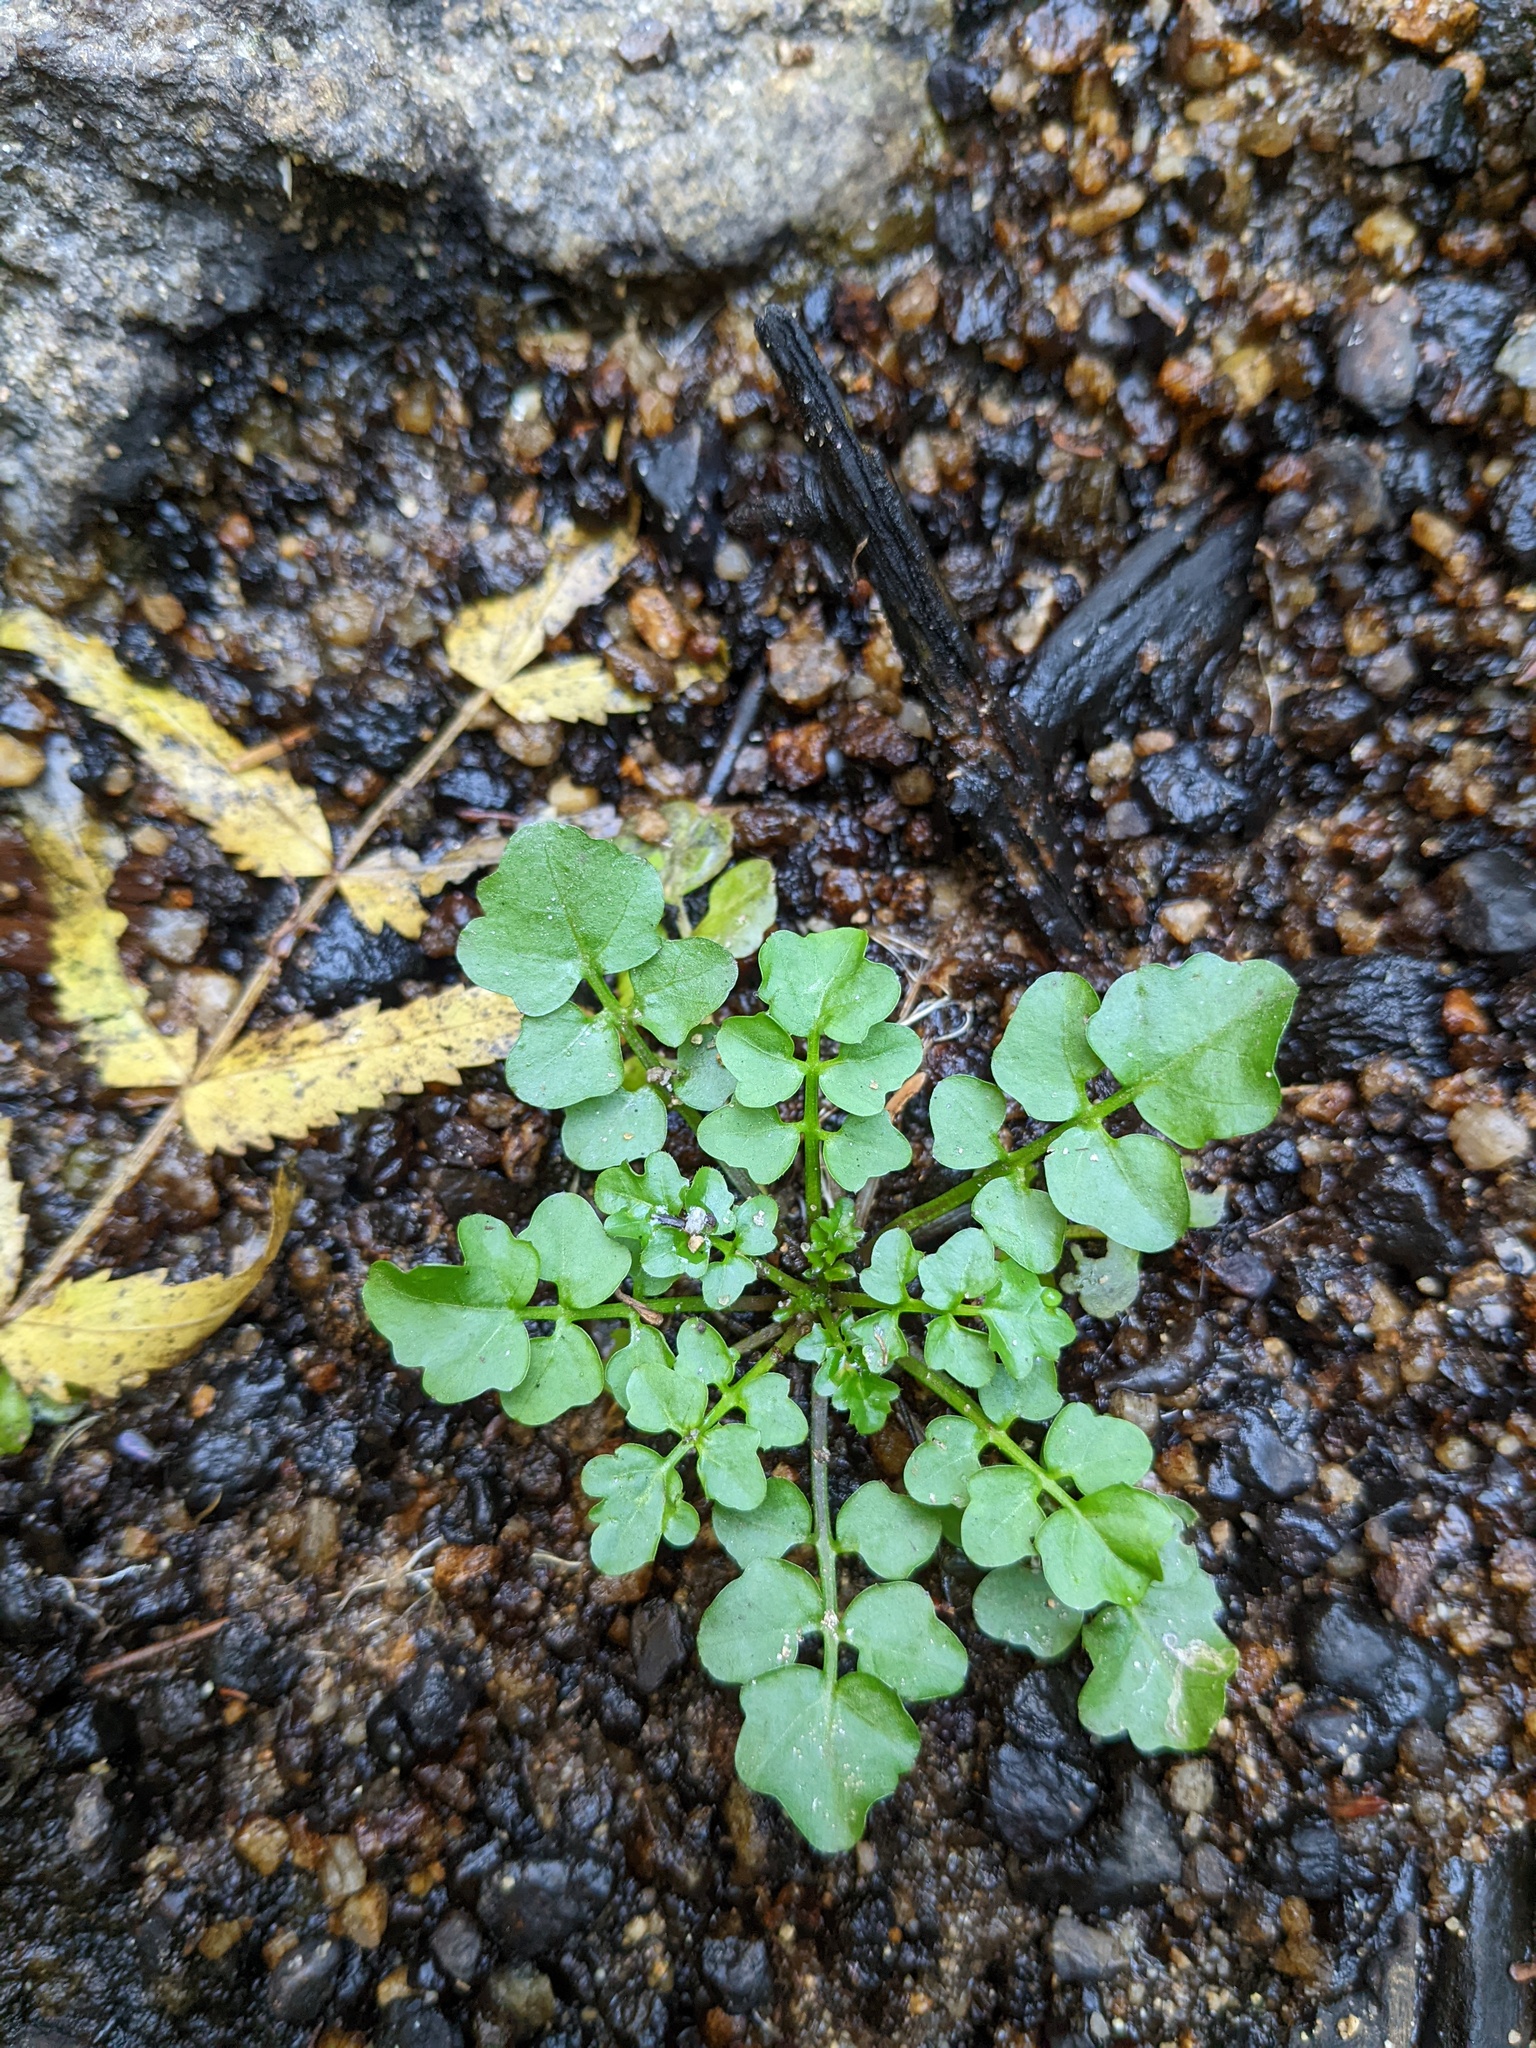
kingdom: Plantae
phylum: Tracheophyta
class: Magnoliopsida
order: Brassicales
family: Brassicaceae
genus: Cardamine
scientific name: Cardamine pensylvanica
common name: Pennsylvania bittercress
